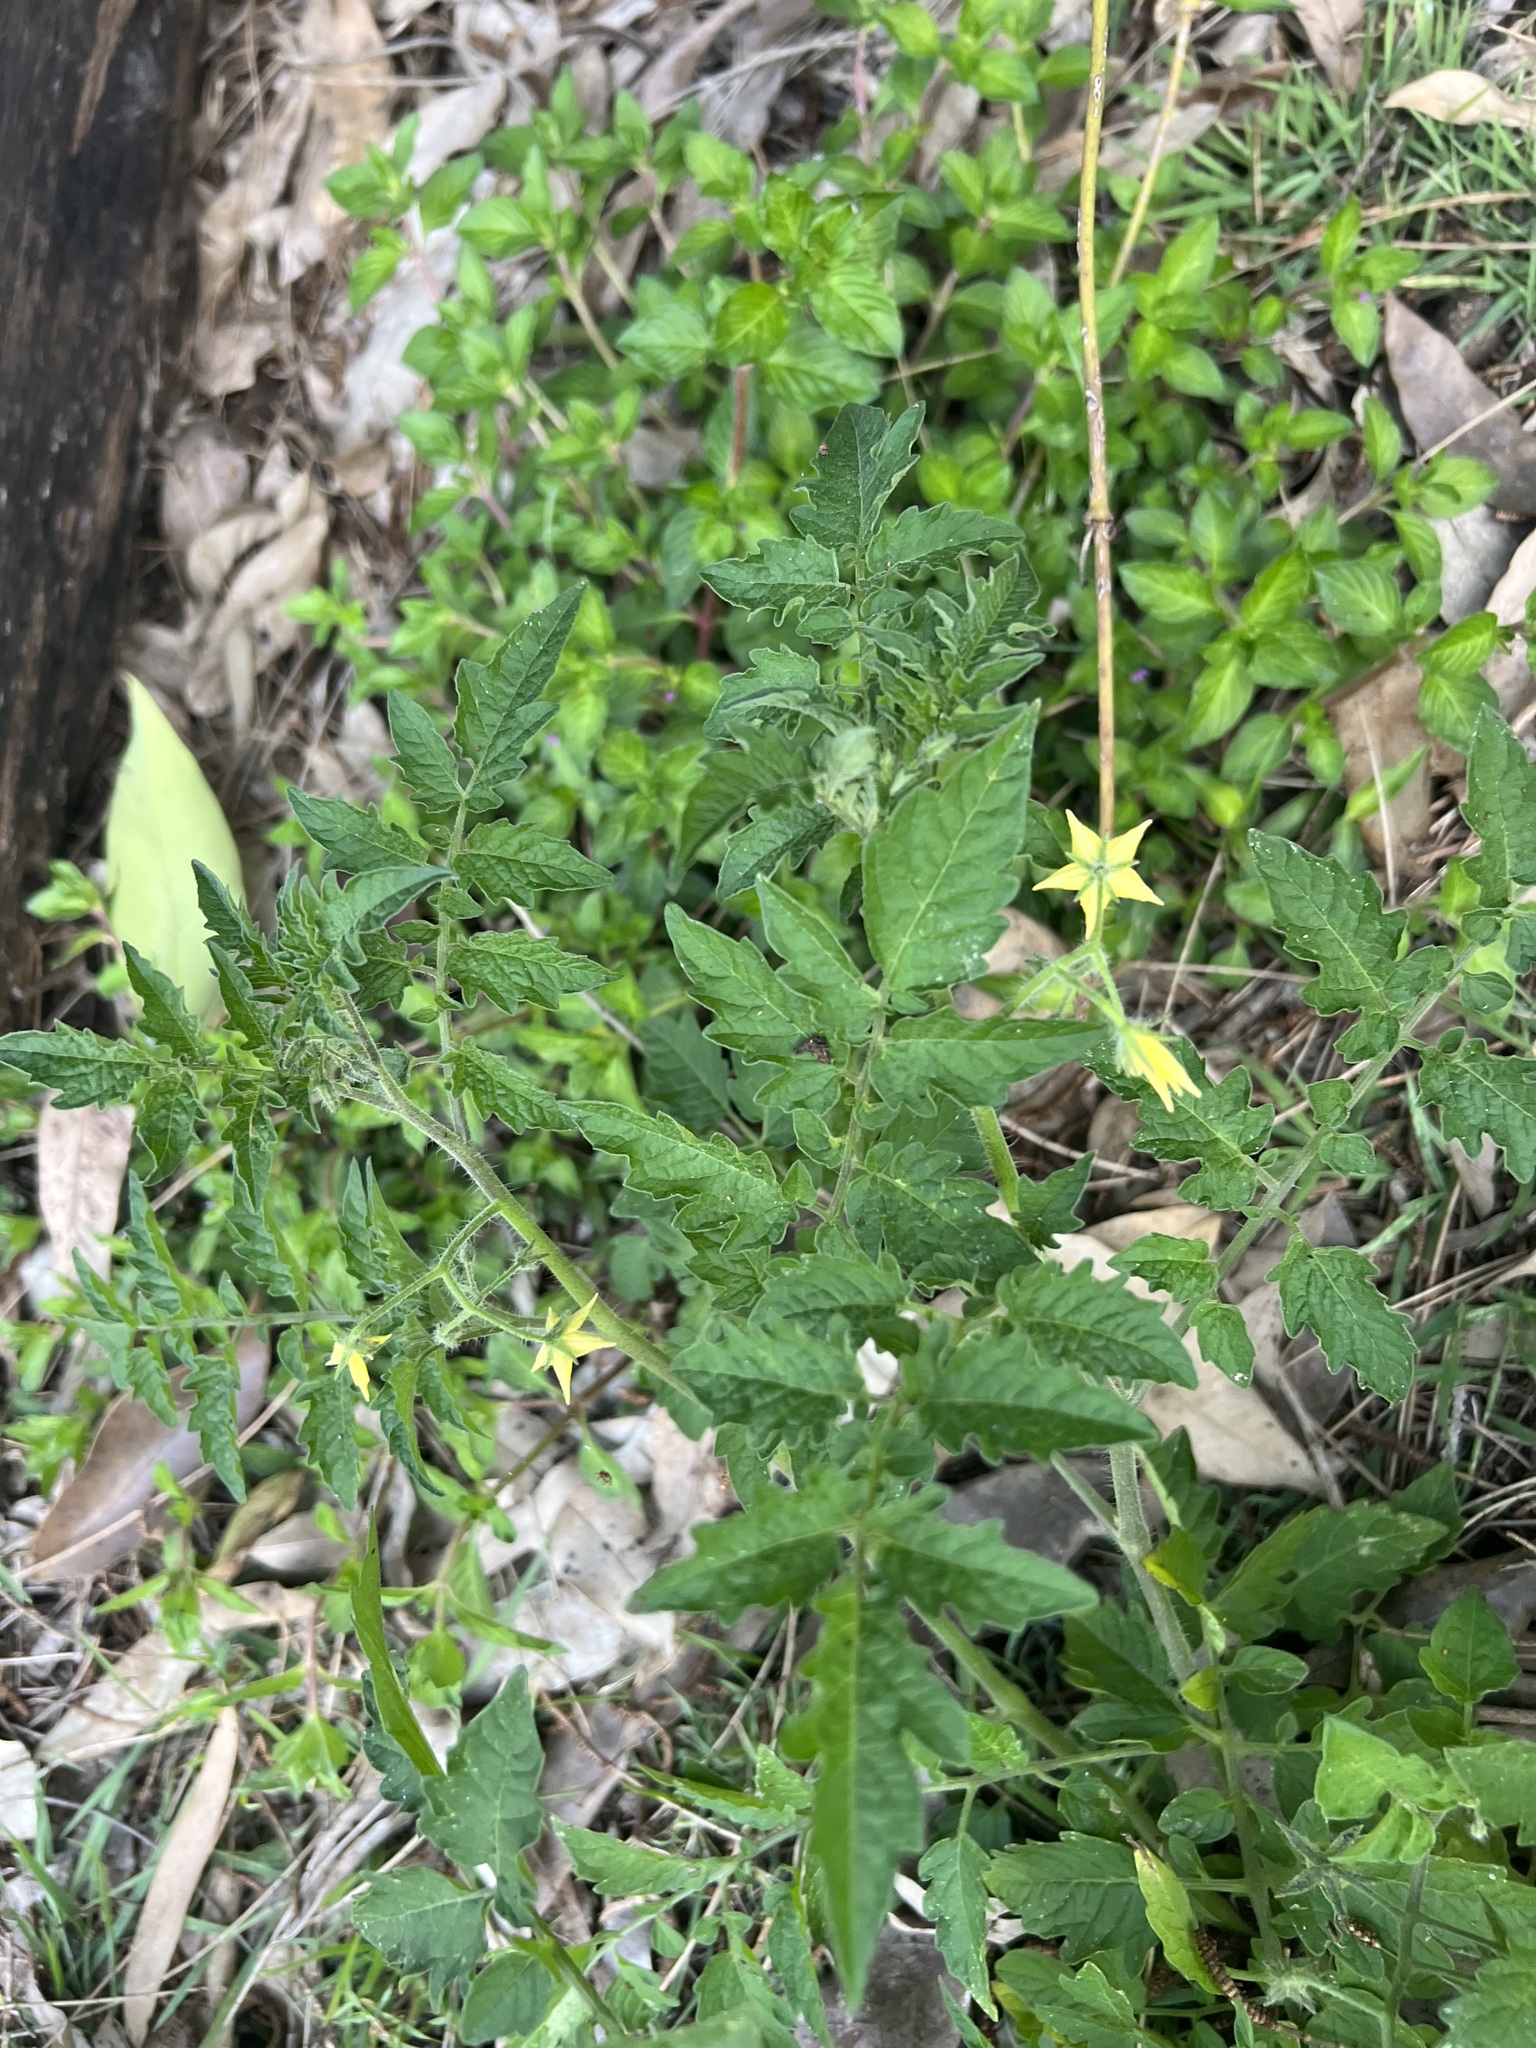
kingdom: Plantae
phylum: Tracheophyta
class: Magnoliopsida
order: Solanales
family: Solanaceae
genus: Solanum
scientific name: Solanum lycopersicum
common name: Garden tomato
